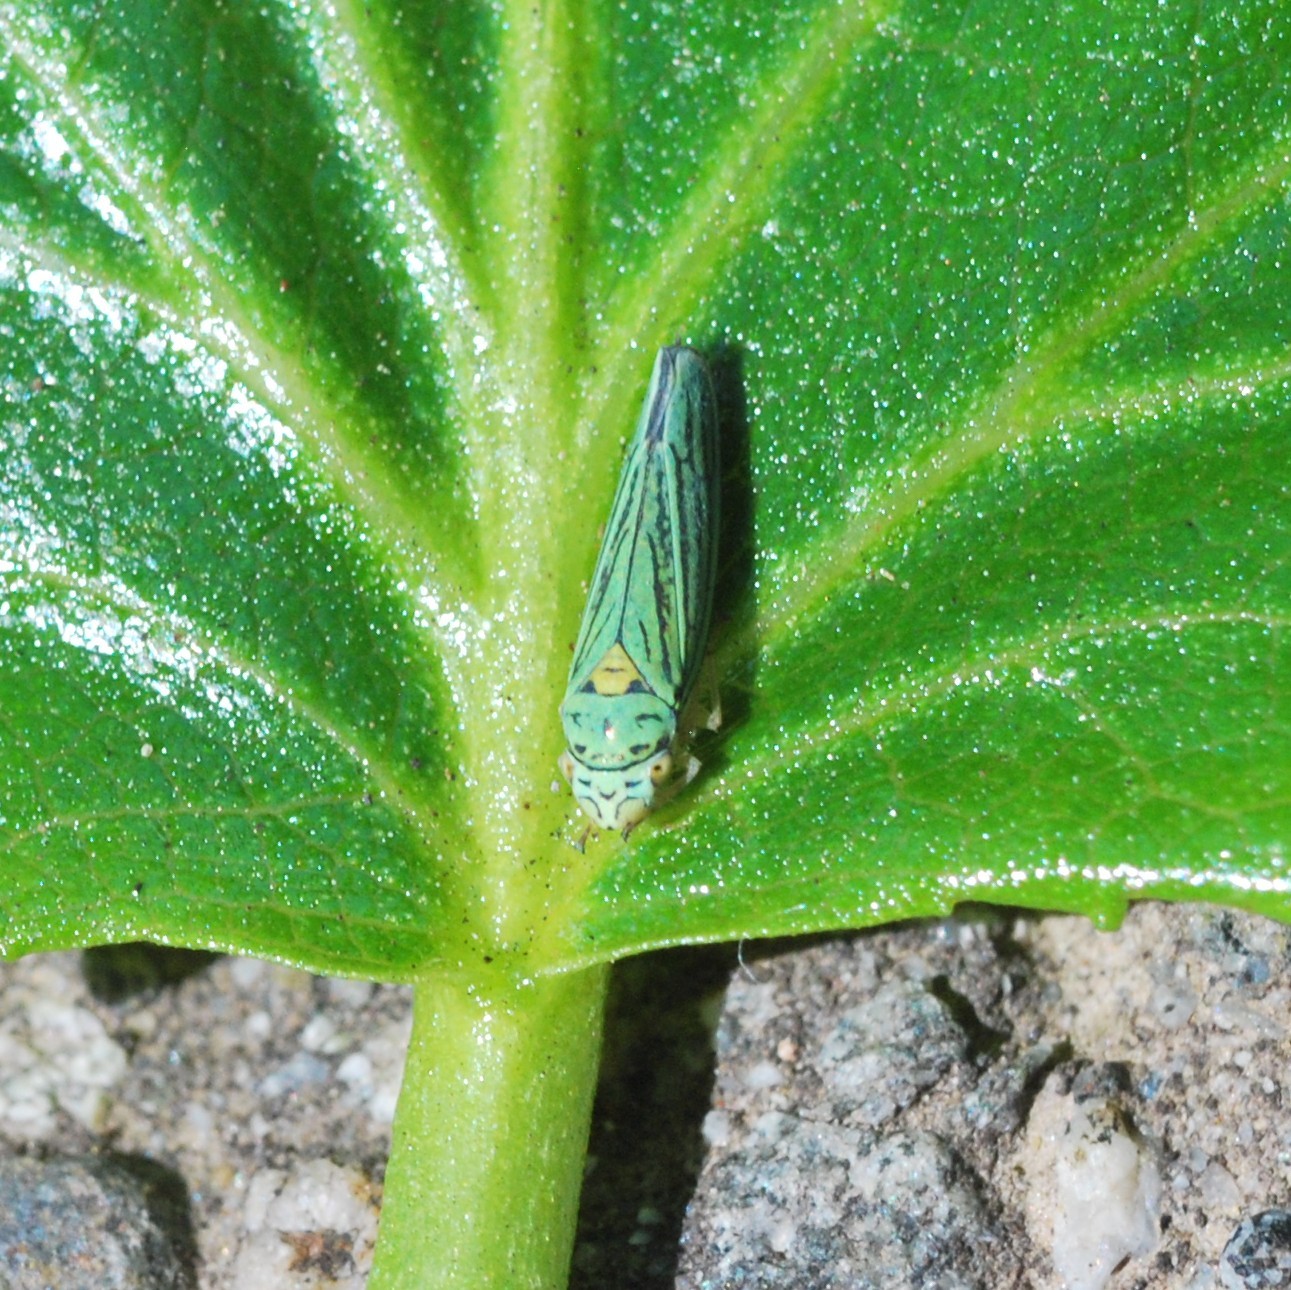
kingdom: Animalia
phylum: Arthropoda
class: Insecta
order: Hemiptera
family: Cicadellidae
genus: Graphocephala
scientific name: Graphocephala atropunctata
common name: Blue-green sharpshooter
